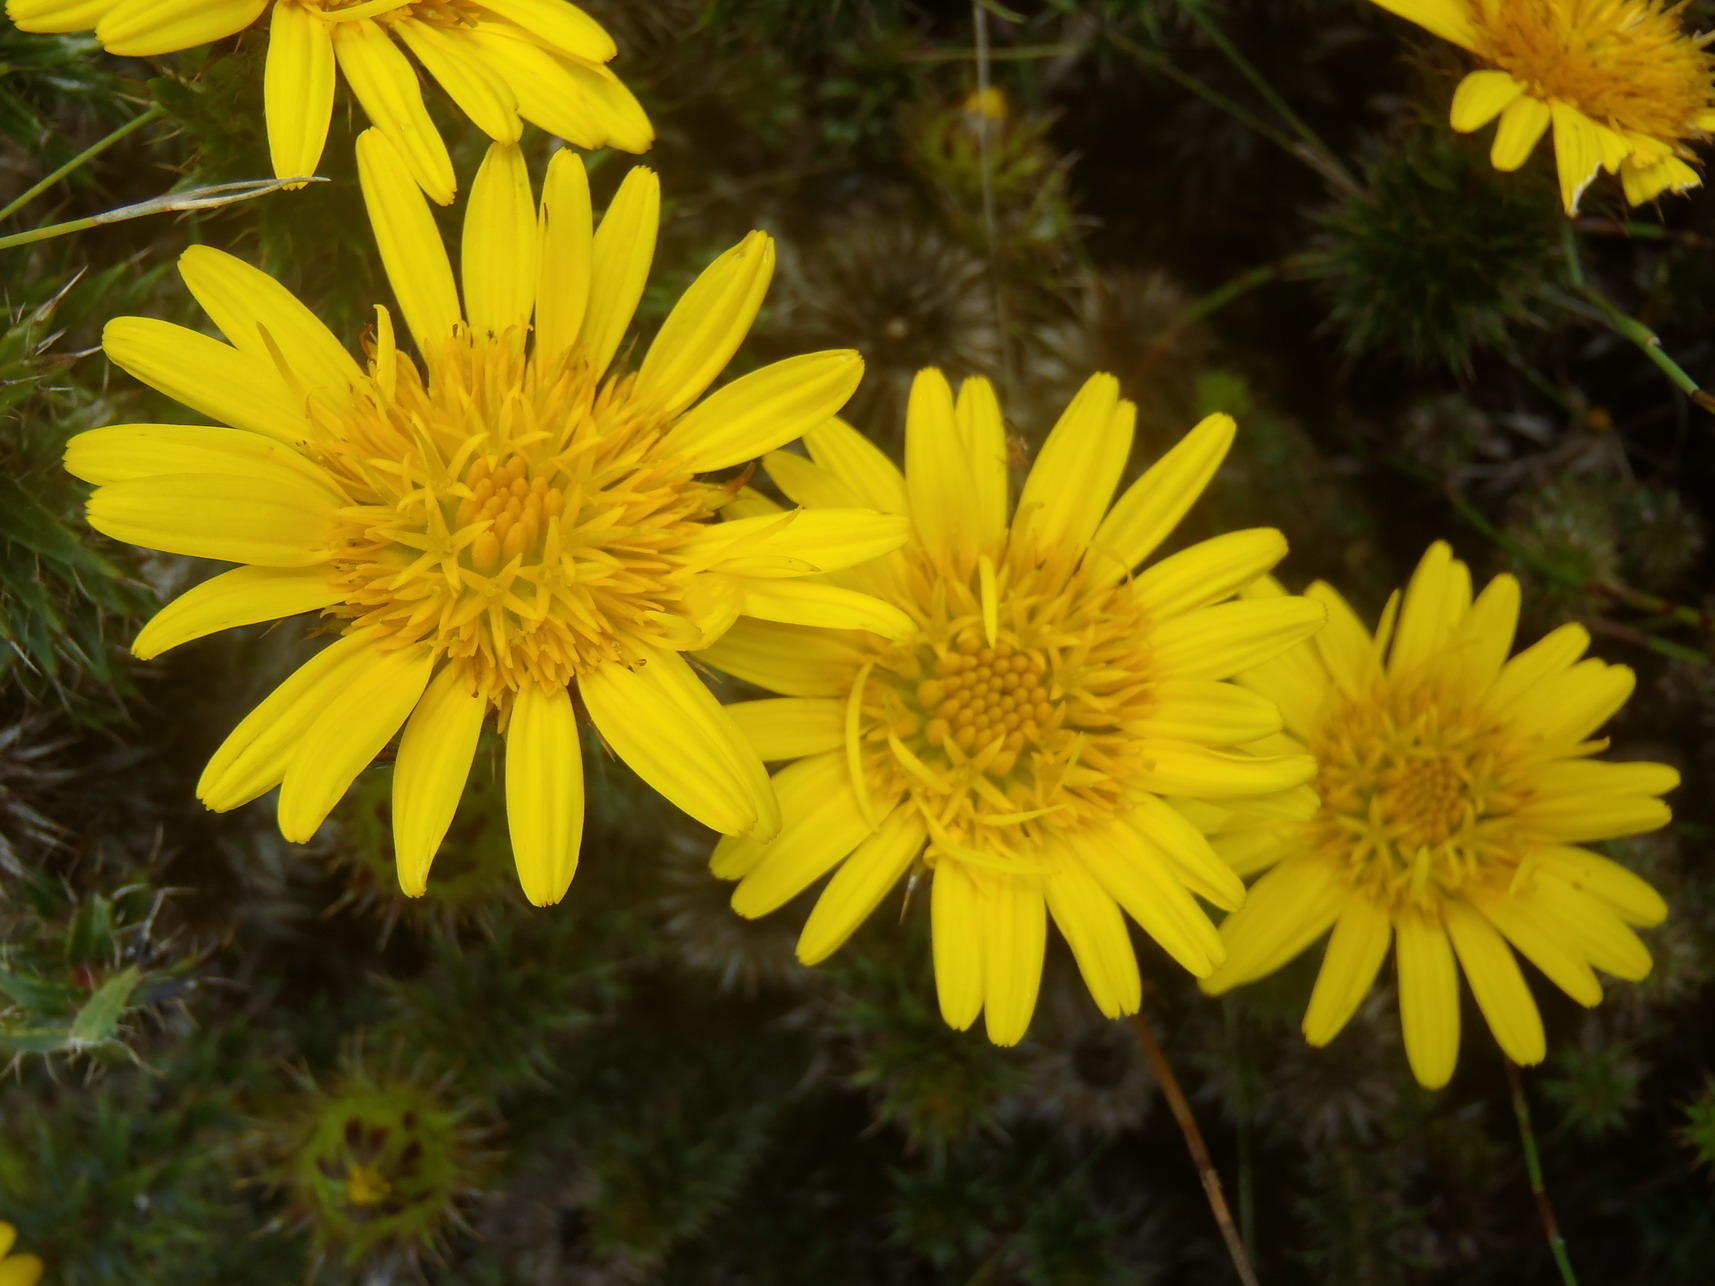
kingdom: Plantae
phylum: Tracheophyta
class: Magnoliopsida
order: Asterales
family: Asteraceae
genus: Cullumia
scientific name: Cullumia carlinoides
